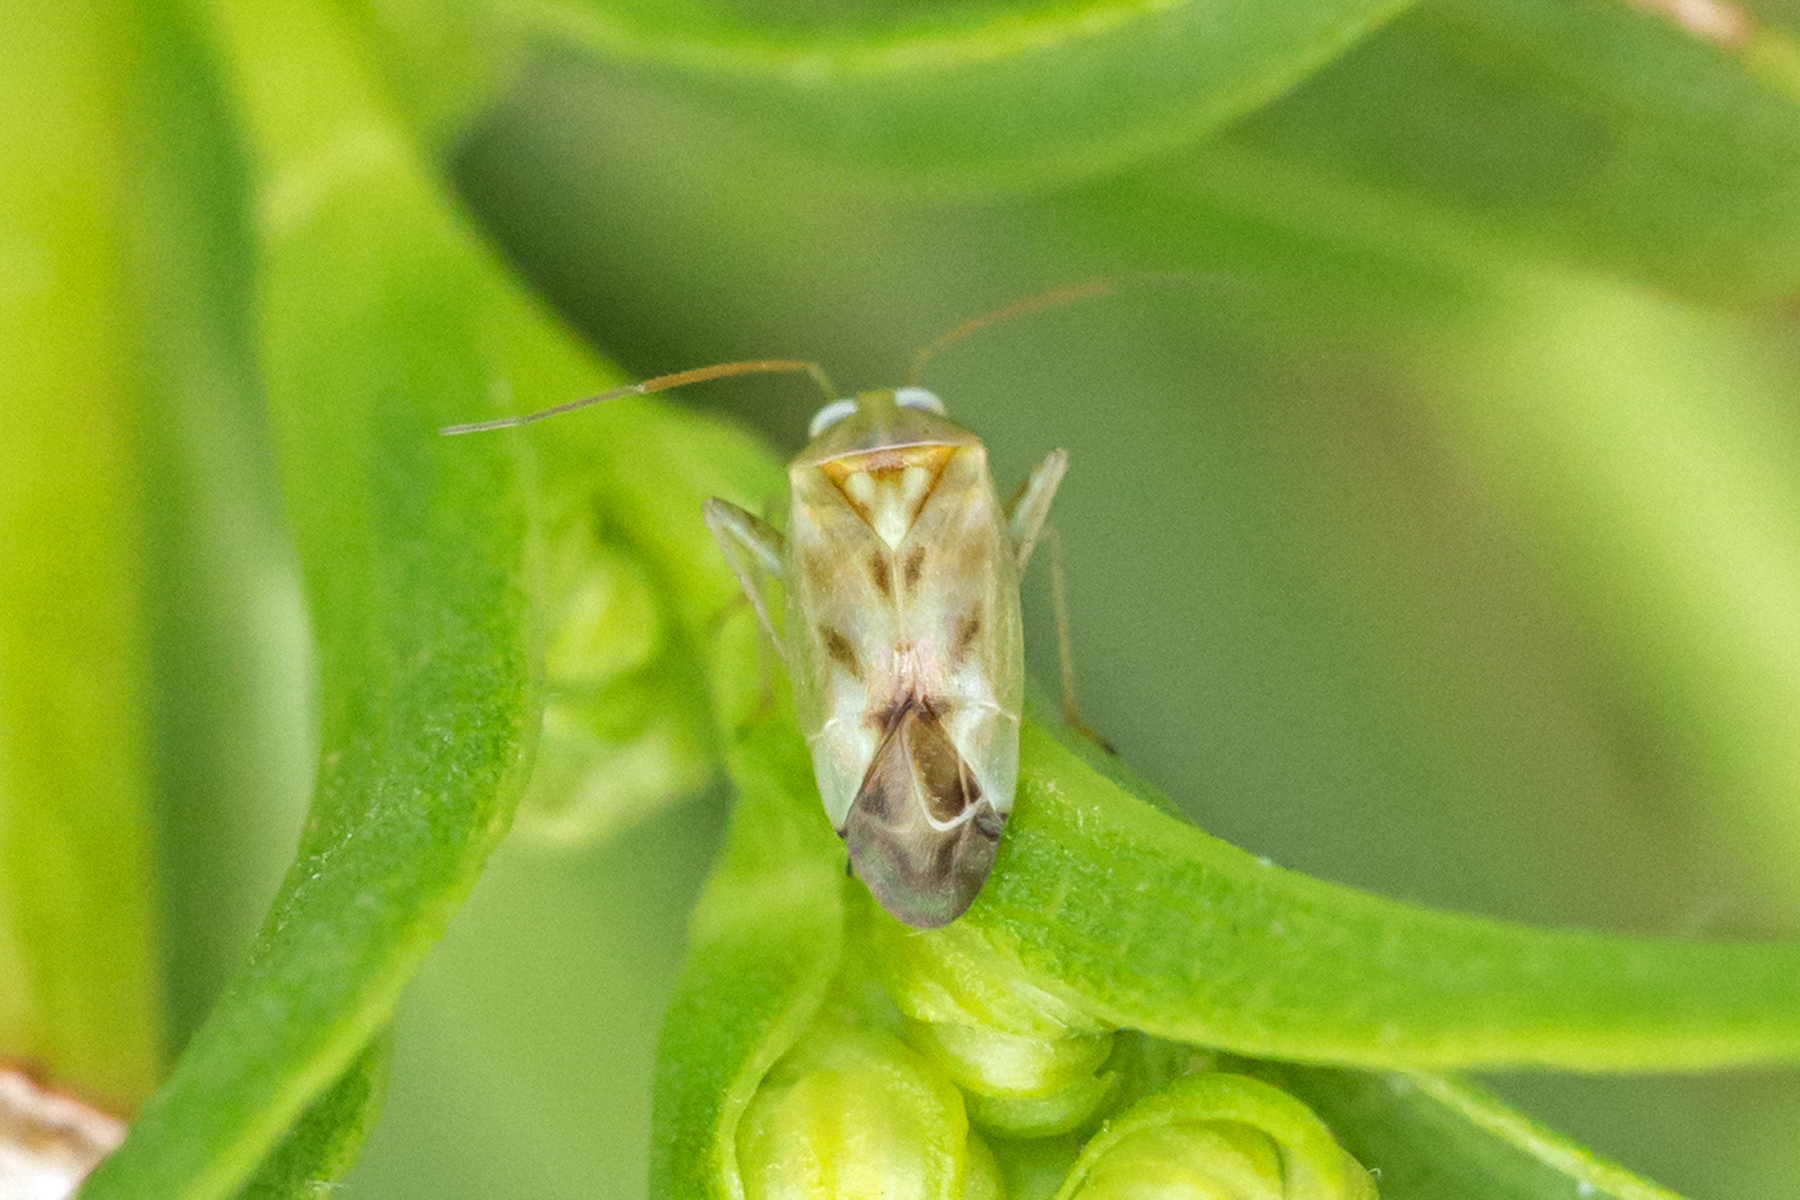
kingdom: Animalia
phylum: Arthropoda
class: Insecta
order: Hemiptera
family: Miridae
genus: Taylorilygus
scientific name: Taylorilygus apicalis
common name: Plant bug
